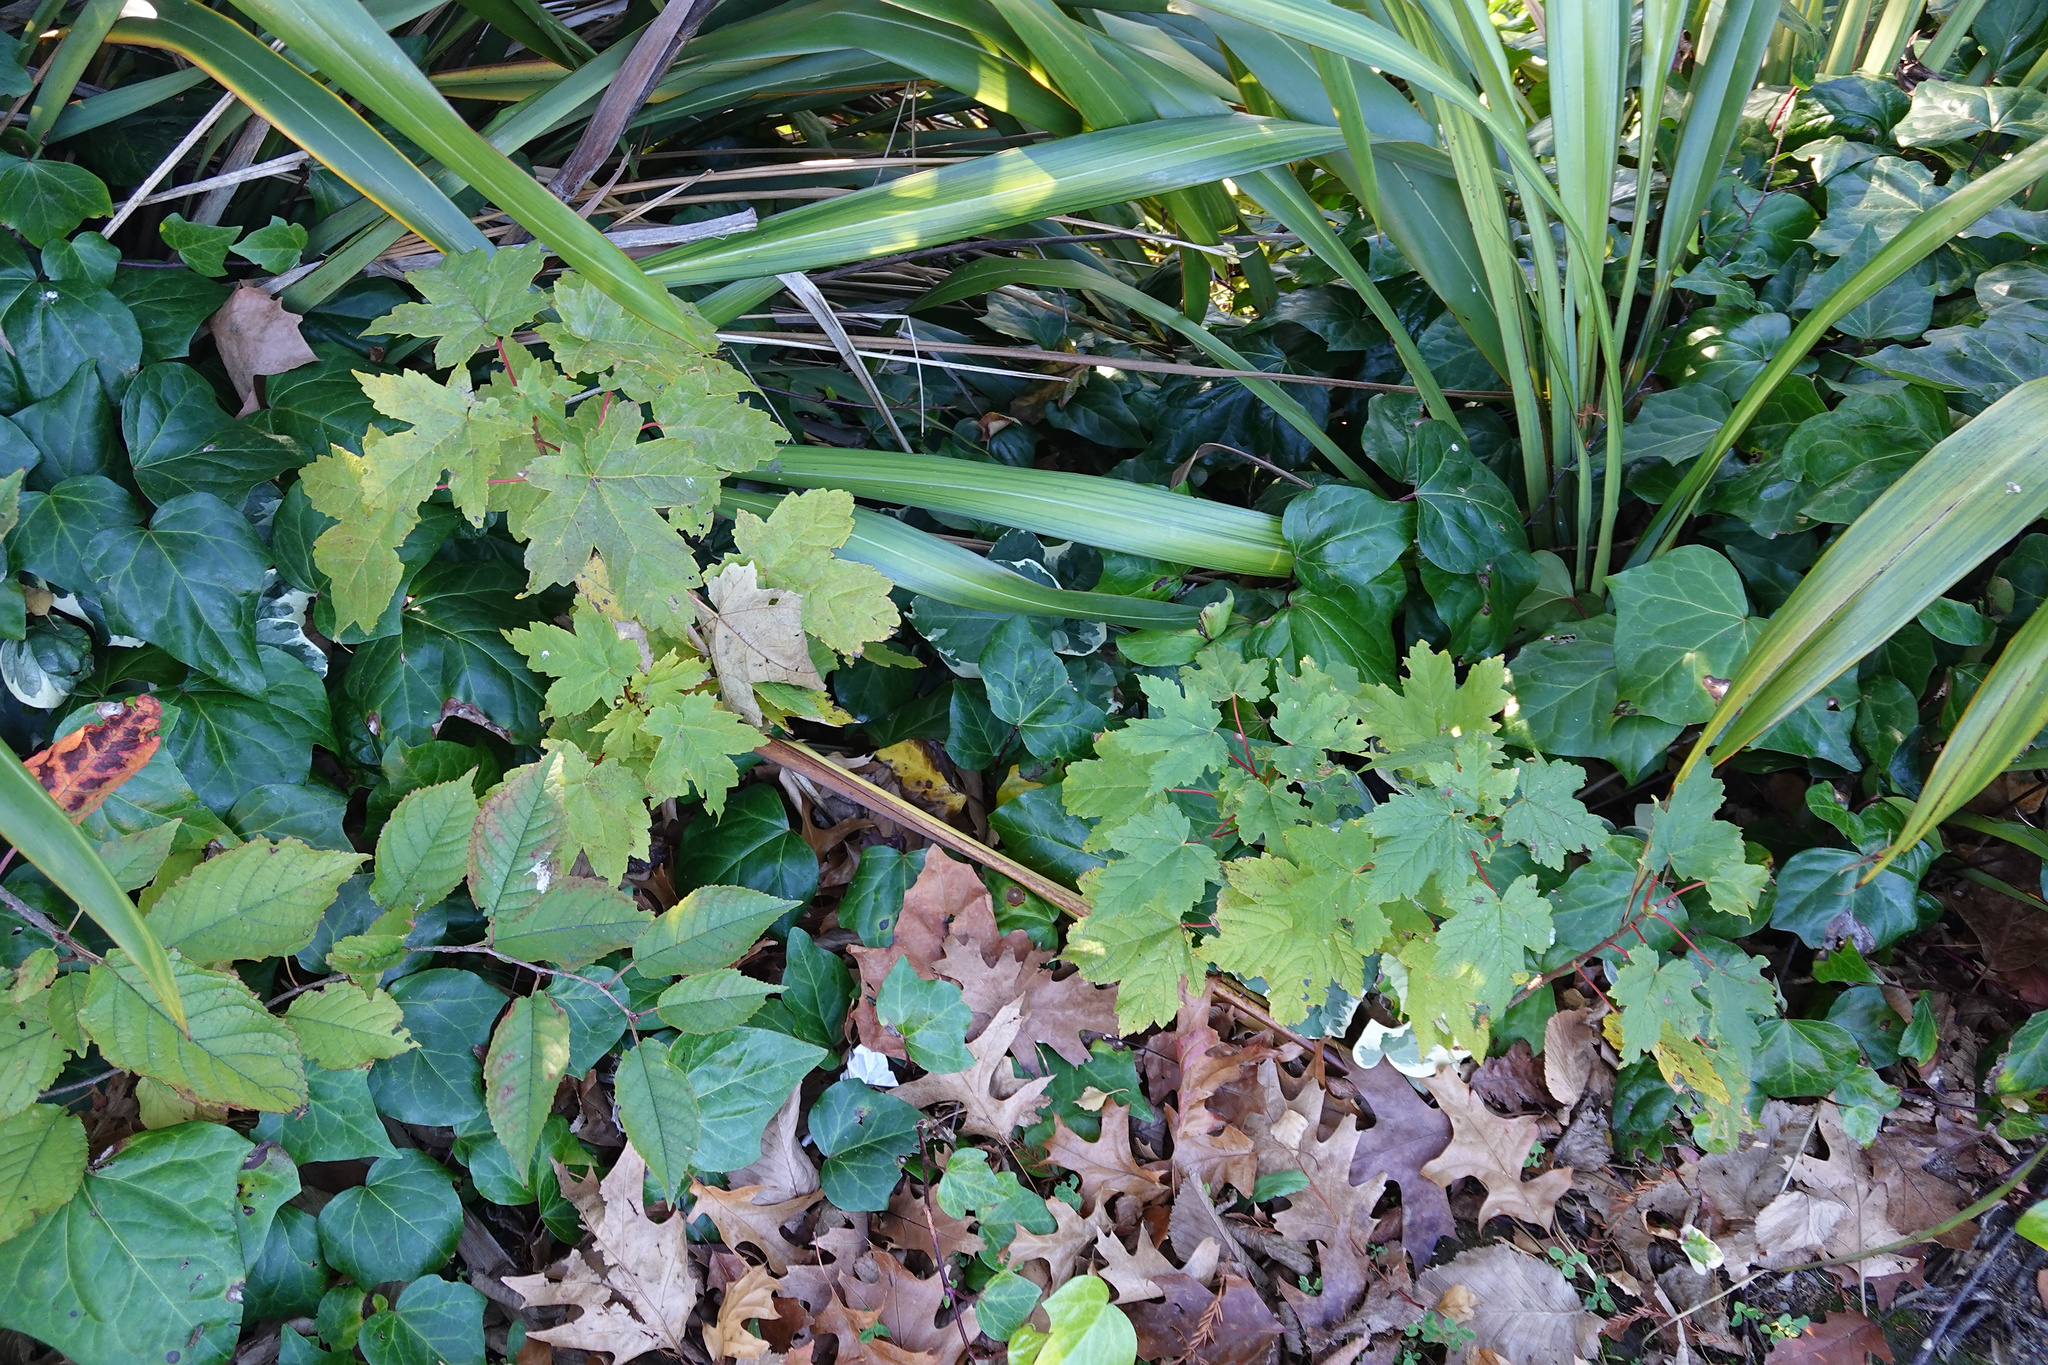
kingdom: Plantae
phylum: Tracheophyta
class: Magnoliopsida
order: Sapindales
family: Sapindaceae
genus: Acer
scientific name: Acer pseudoplatanus
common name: Sycamore
